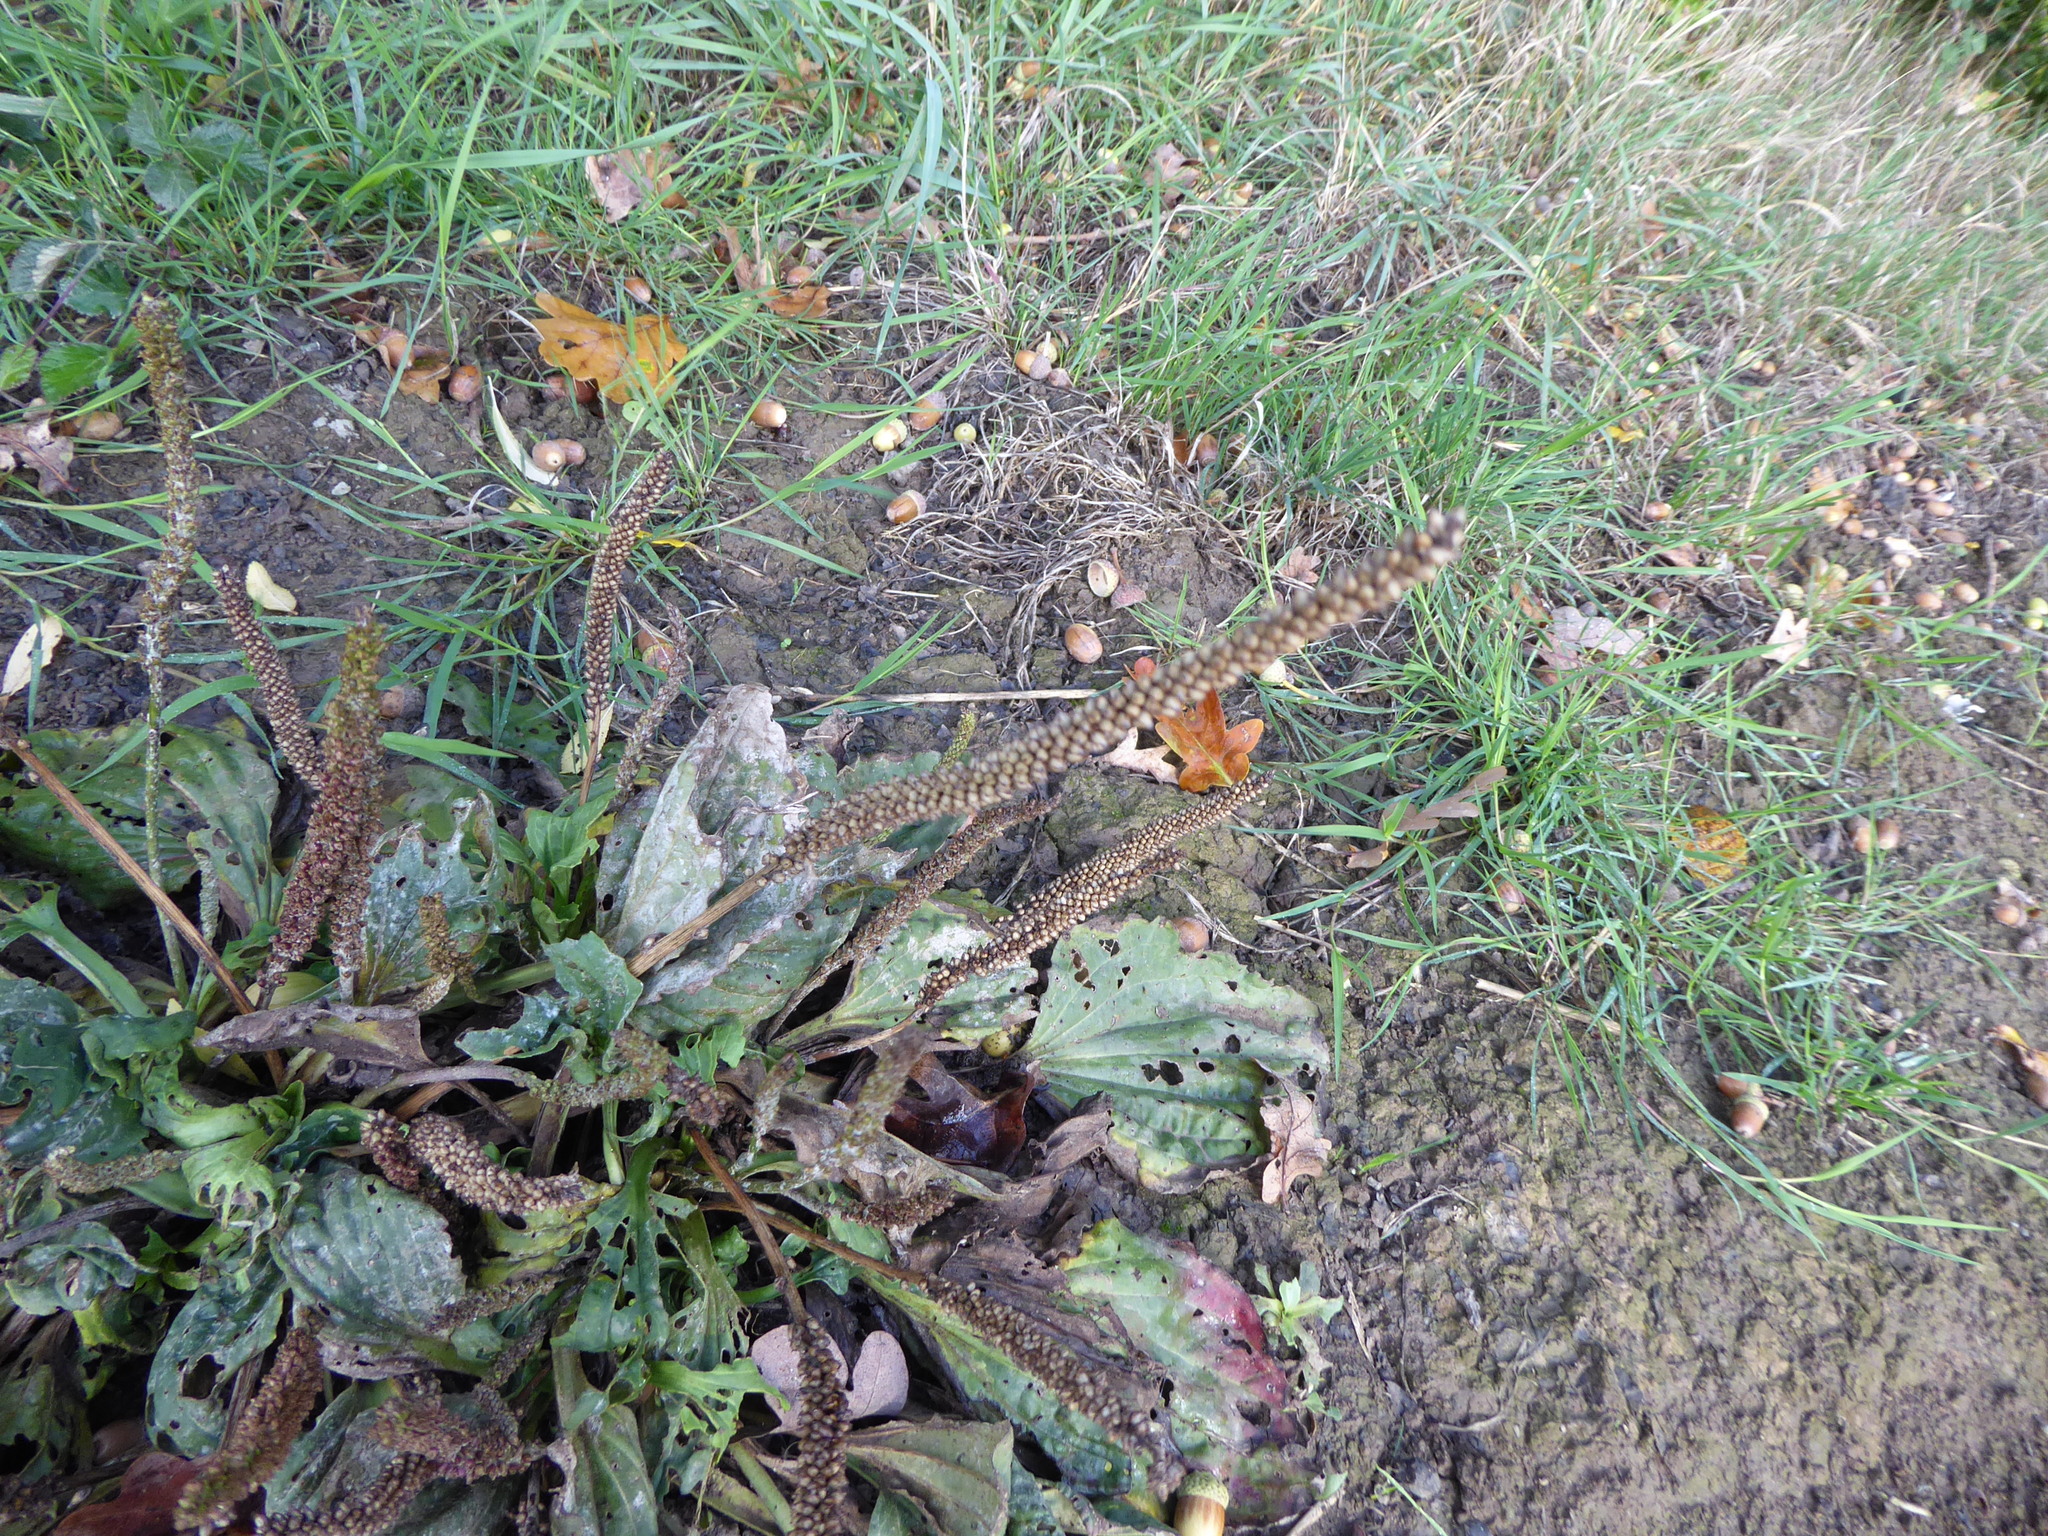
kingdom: Plantae
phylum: Tracheophyta
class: Magnoliopsida
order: Lamiales
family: Plantaginaceae
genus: Plantago
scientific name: Plantago major
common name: Common plantain
